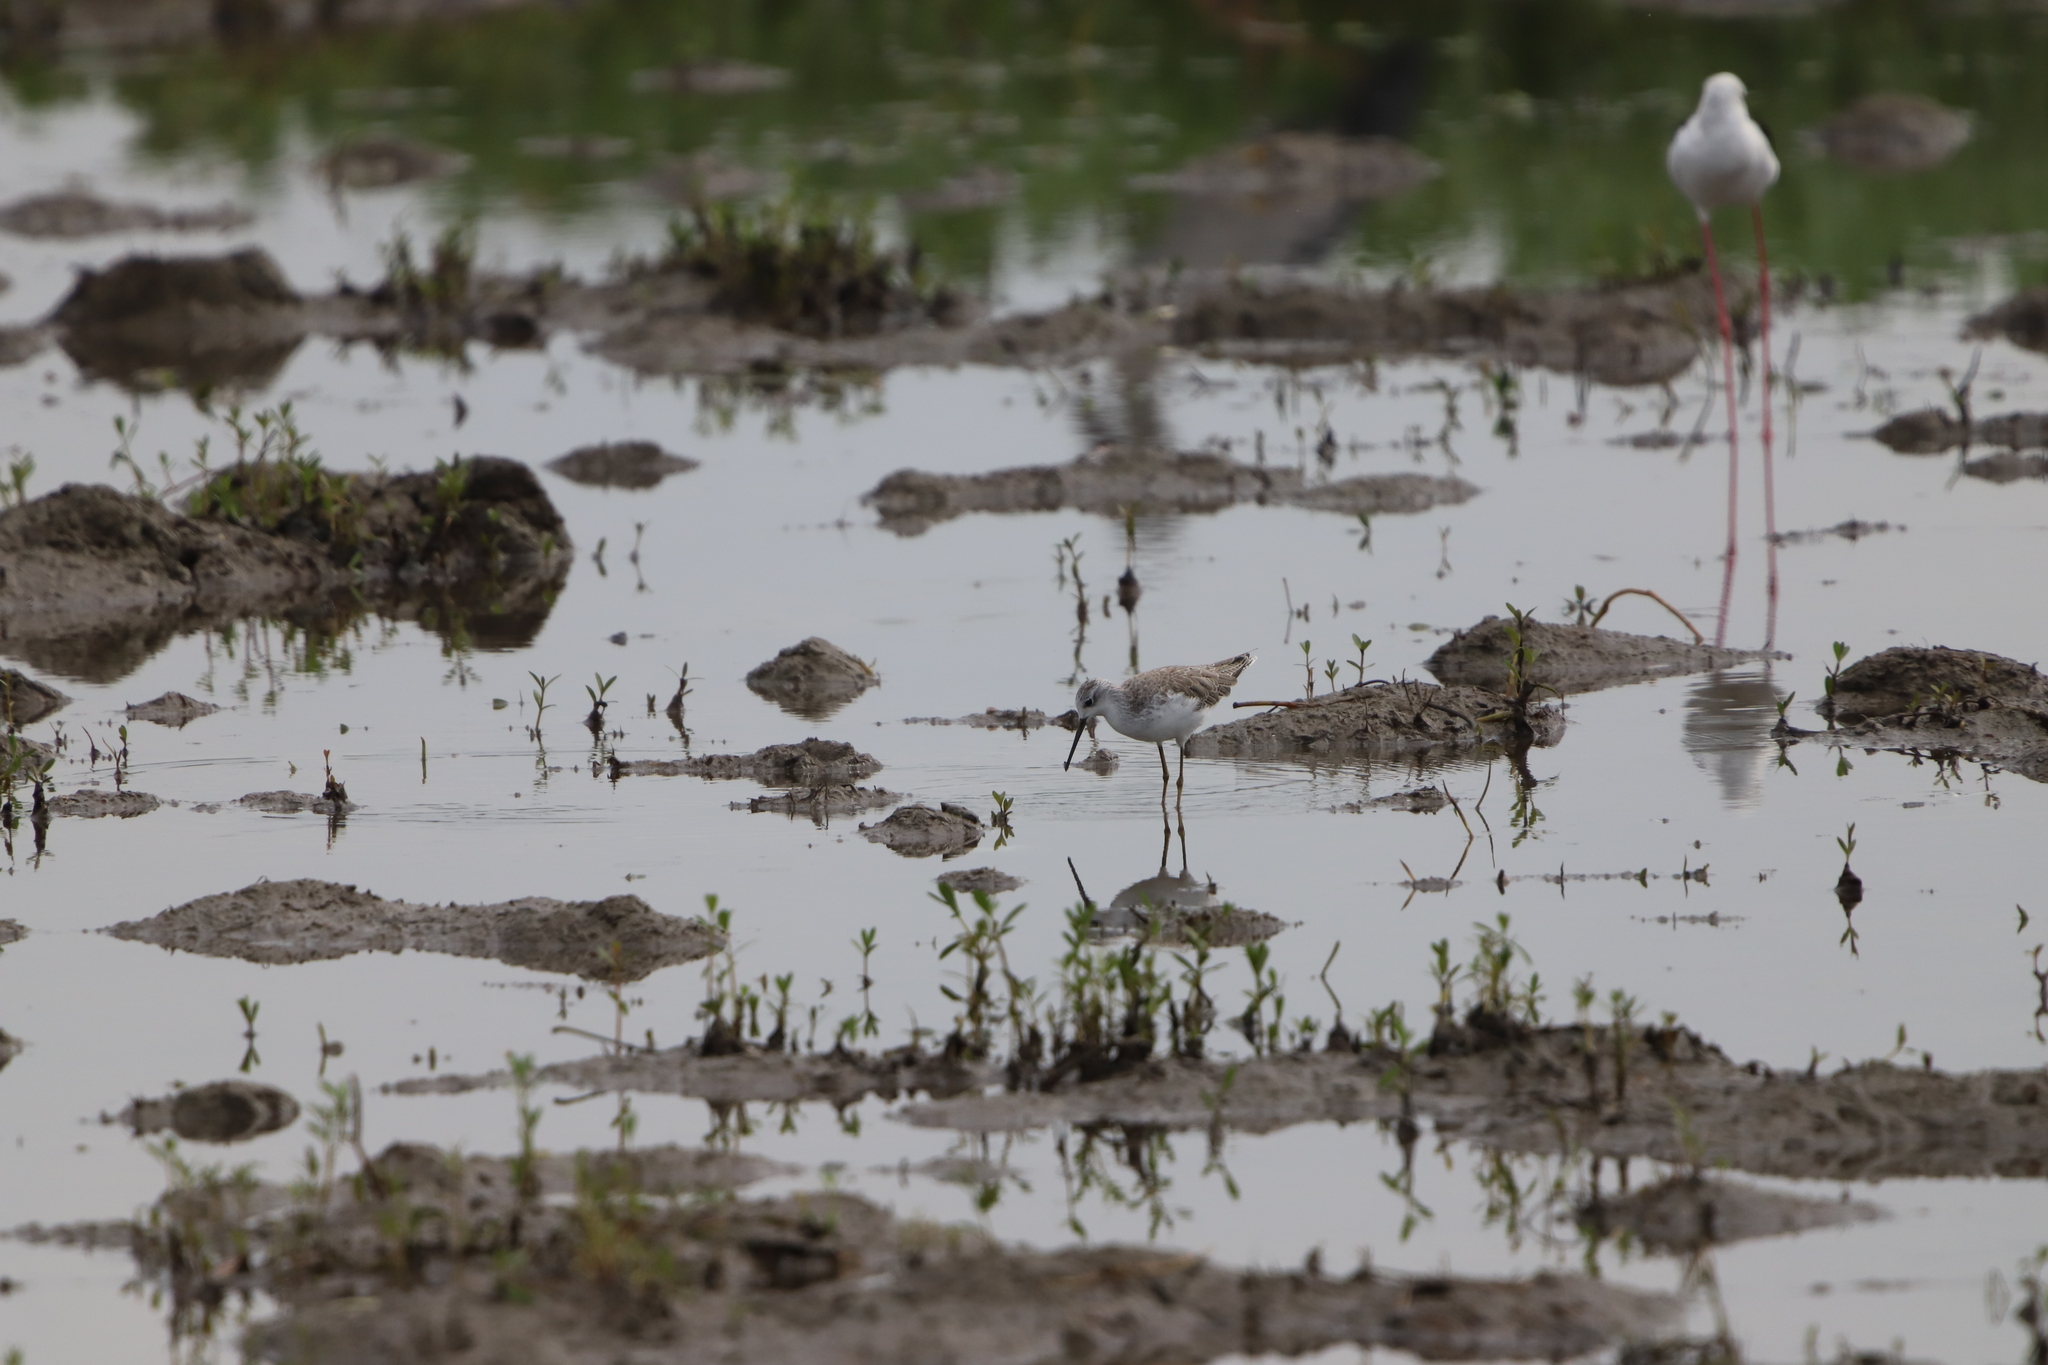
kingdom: Animalia
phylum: Chordata
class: Aves
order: Charadriiformes
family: Scolopacidae
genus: Tringa
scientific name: Tringa stagnatilis
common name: Marsh sandpiper
